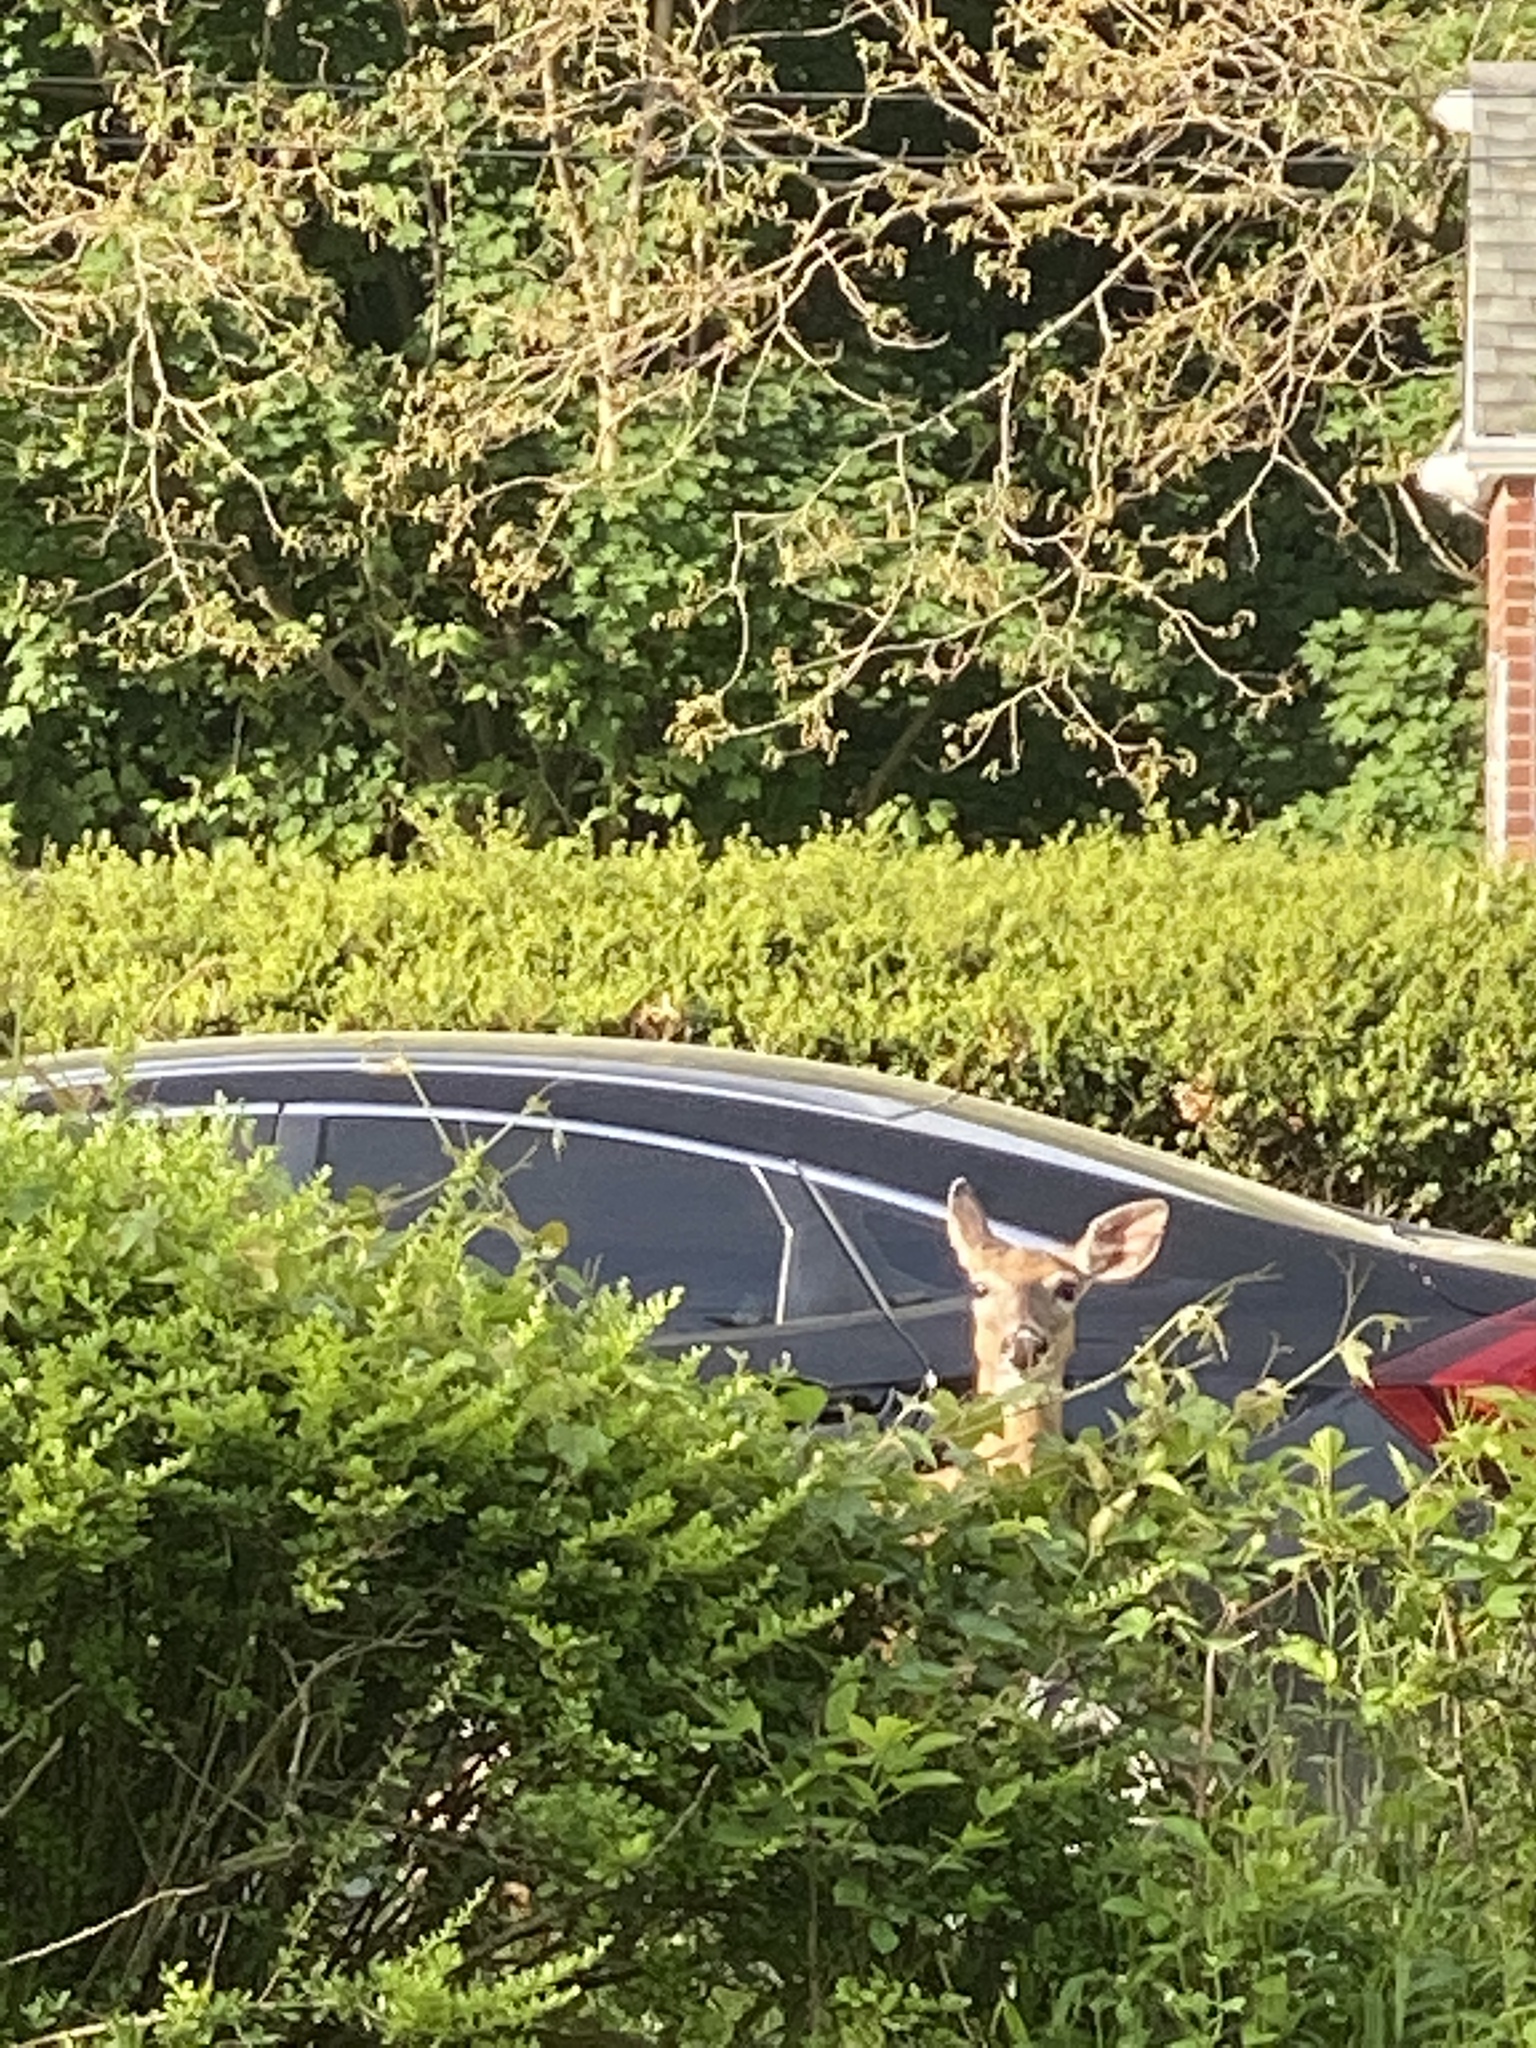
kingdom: Animalia
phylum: Chordata
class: Mammalia
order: Artiodactyla
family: Cervidae
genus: Odocoileus
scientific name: Odocoileus virginianus
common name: White-tailed deer
